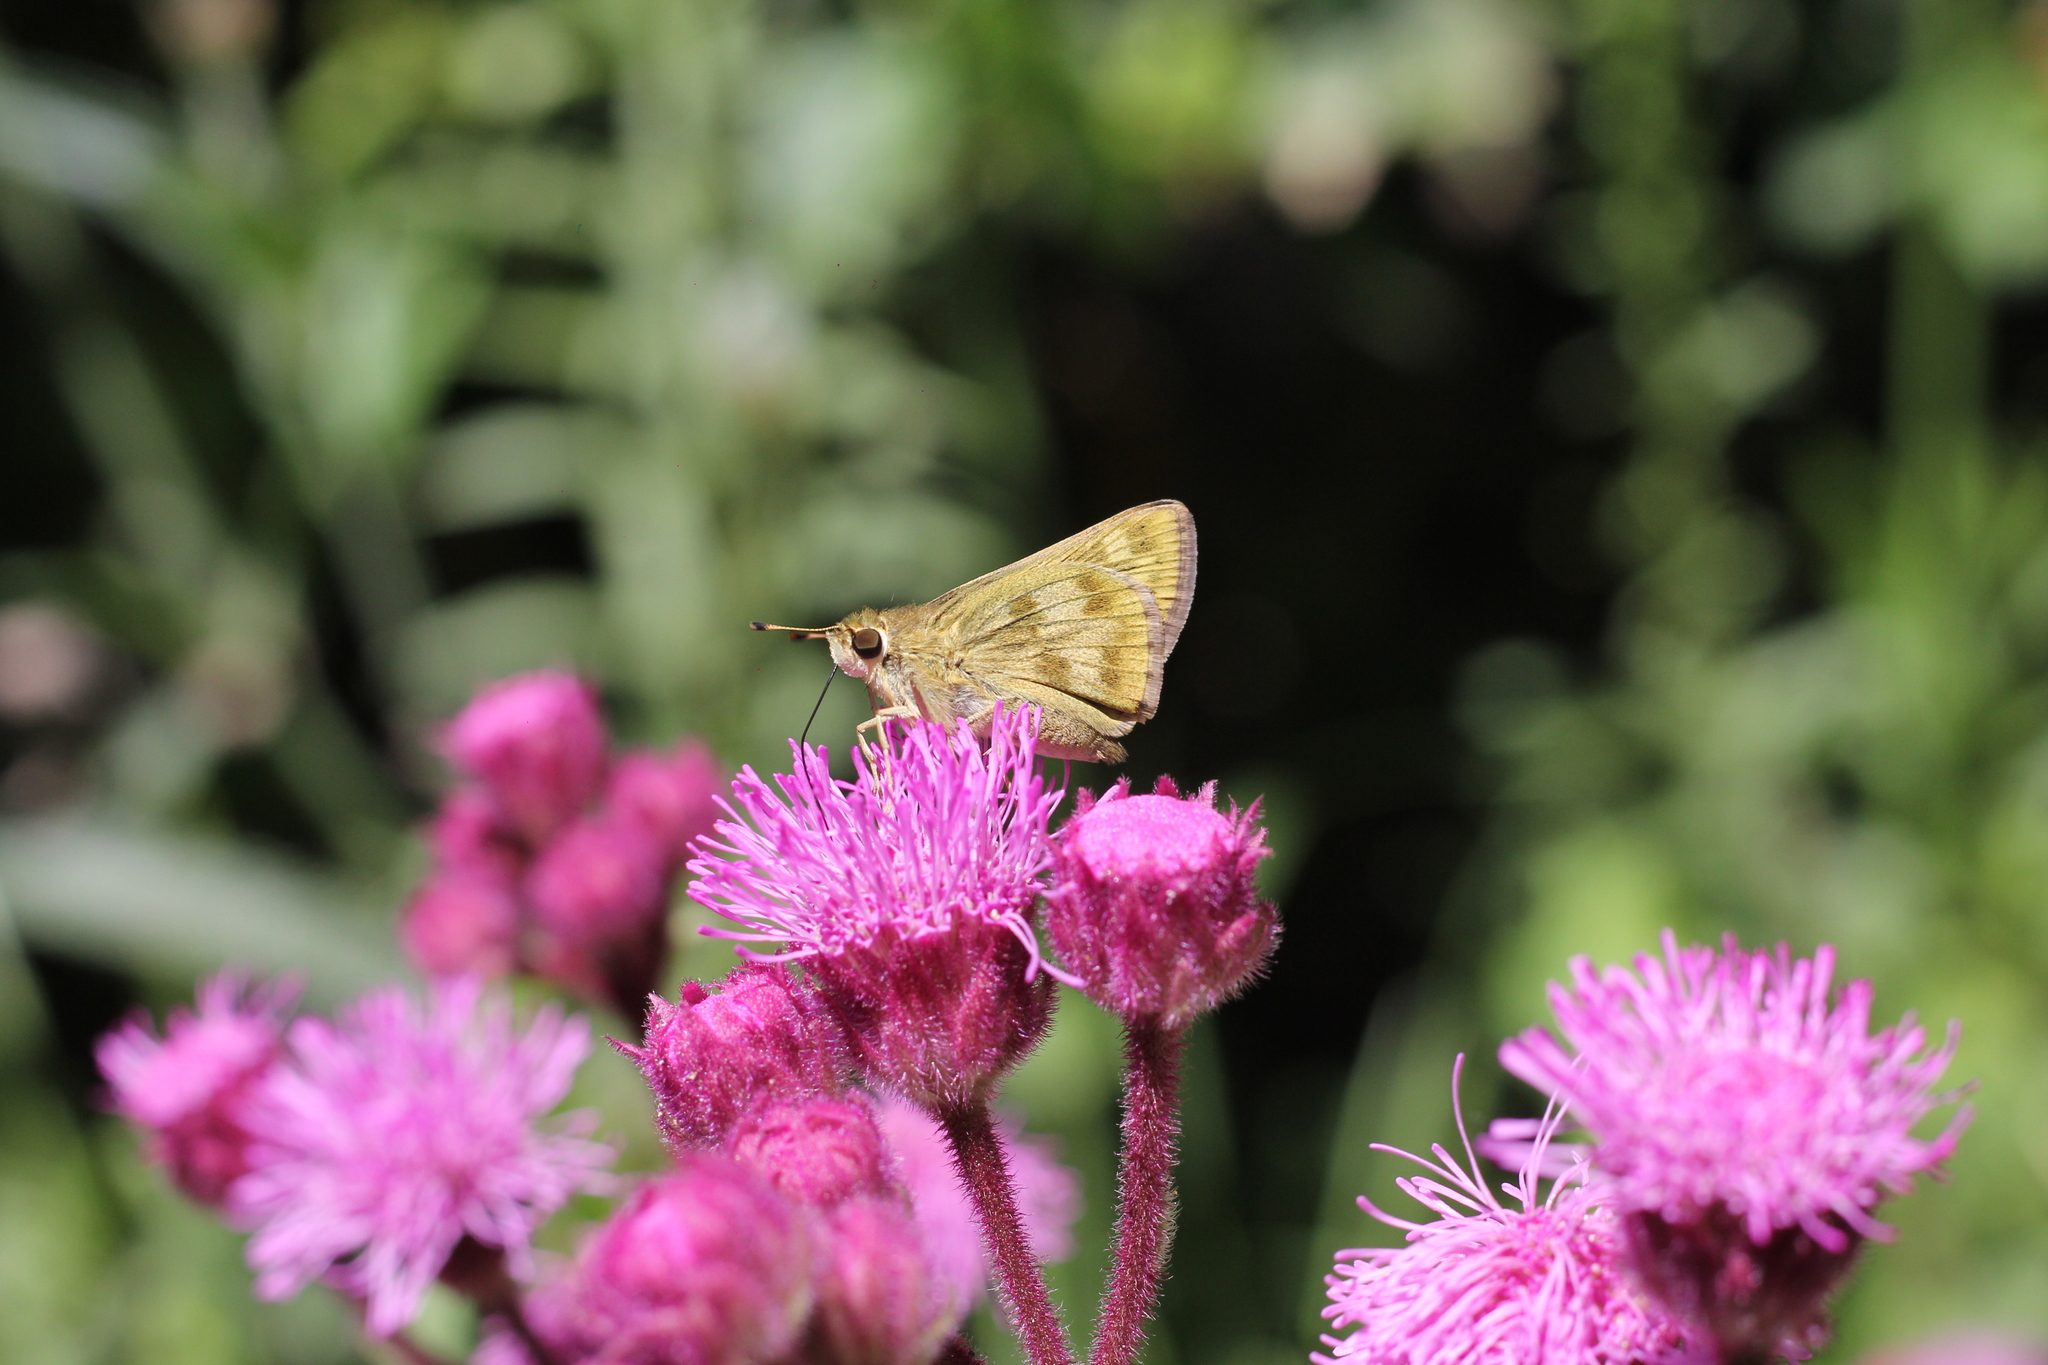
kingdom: Animalia
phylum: Arthropoda
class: Insecta
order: Lepidoptera
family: Hesperiidae
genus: Polites
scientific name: Polites vibex
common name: Whirlabout
